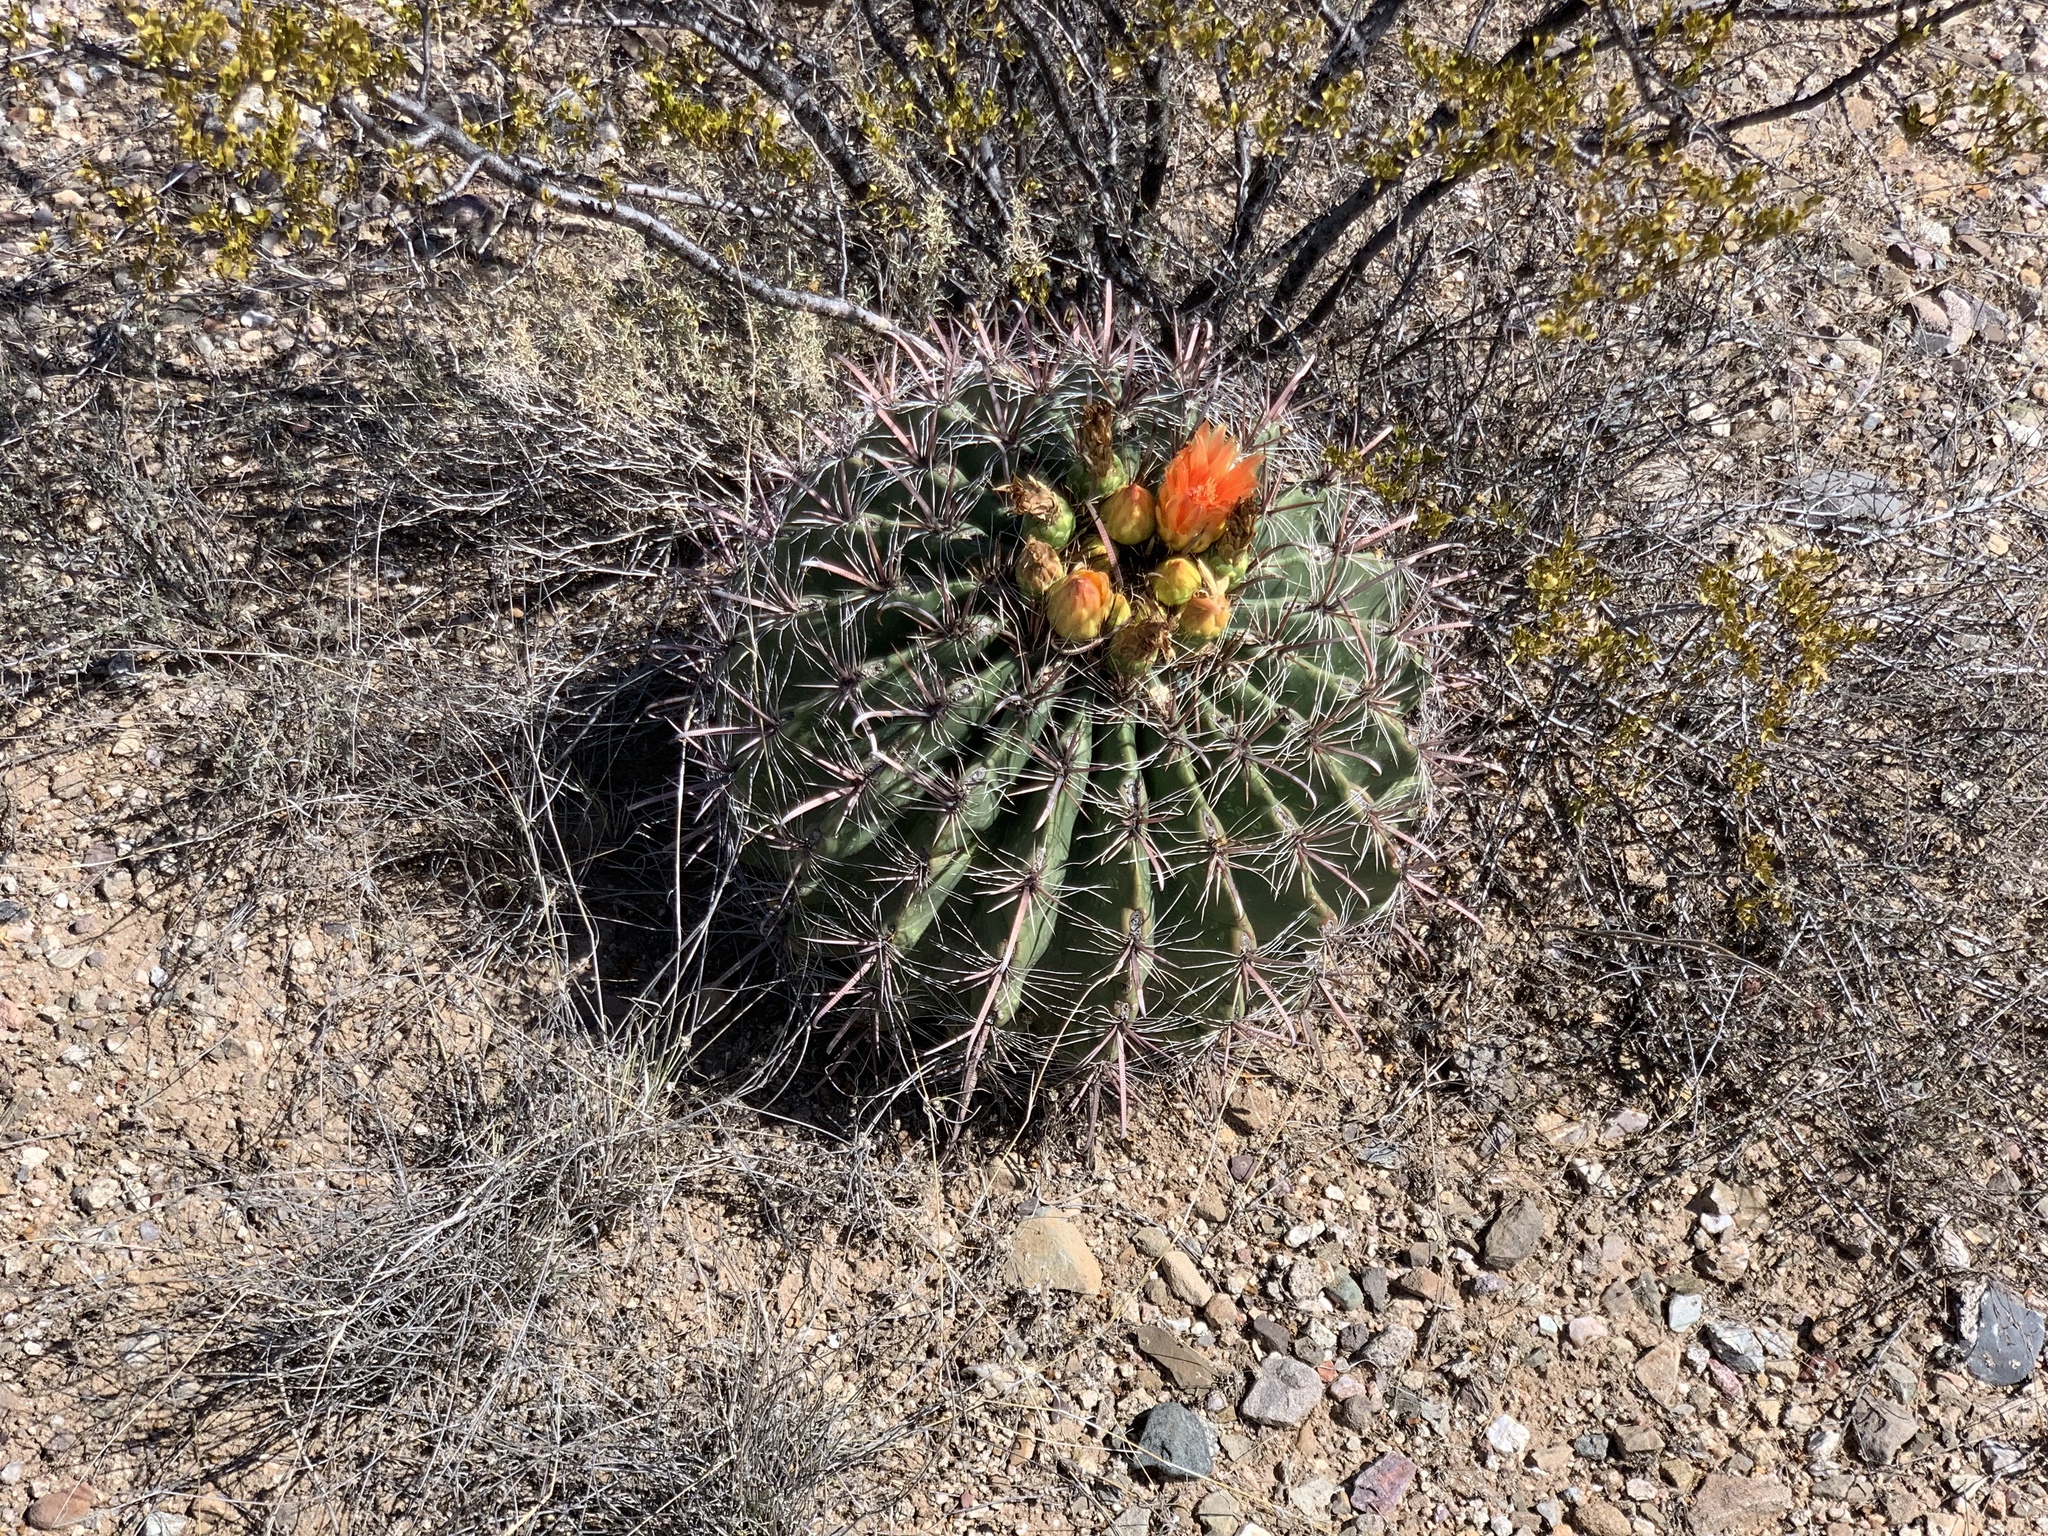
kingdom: Plantae
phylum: Tracheophyta
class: Magnoliopsida
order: Caryophyllales
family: Cactaceae
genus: Ferocactus
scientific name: Ferocactus wislizeni
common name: Candy barrel cactus
